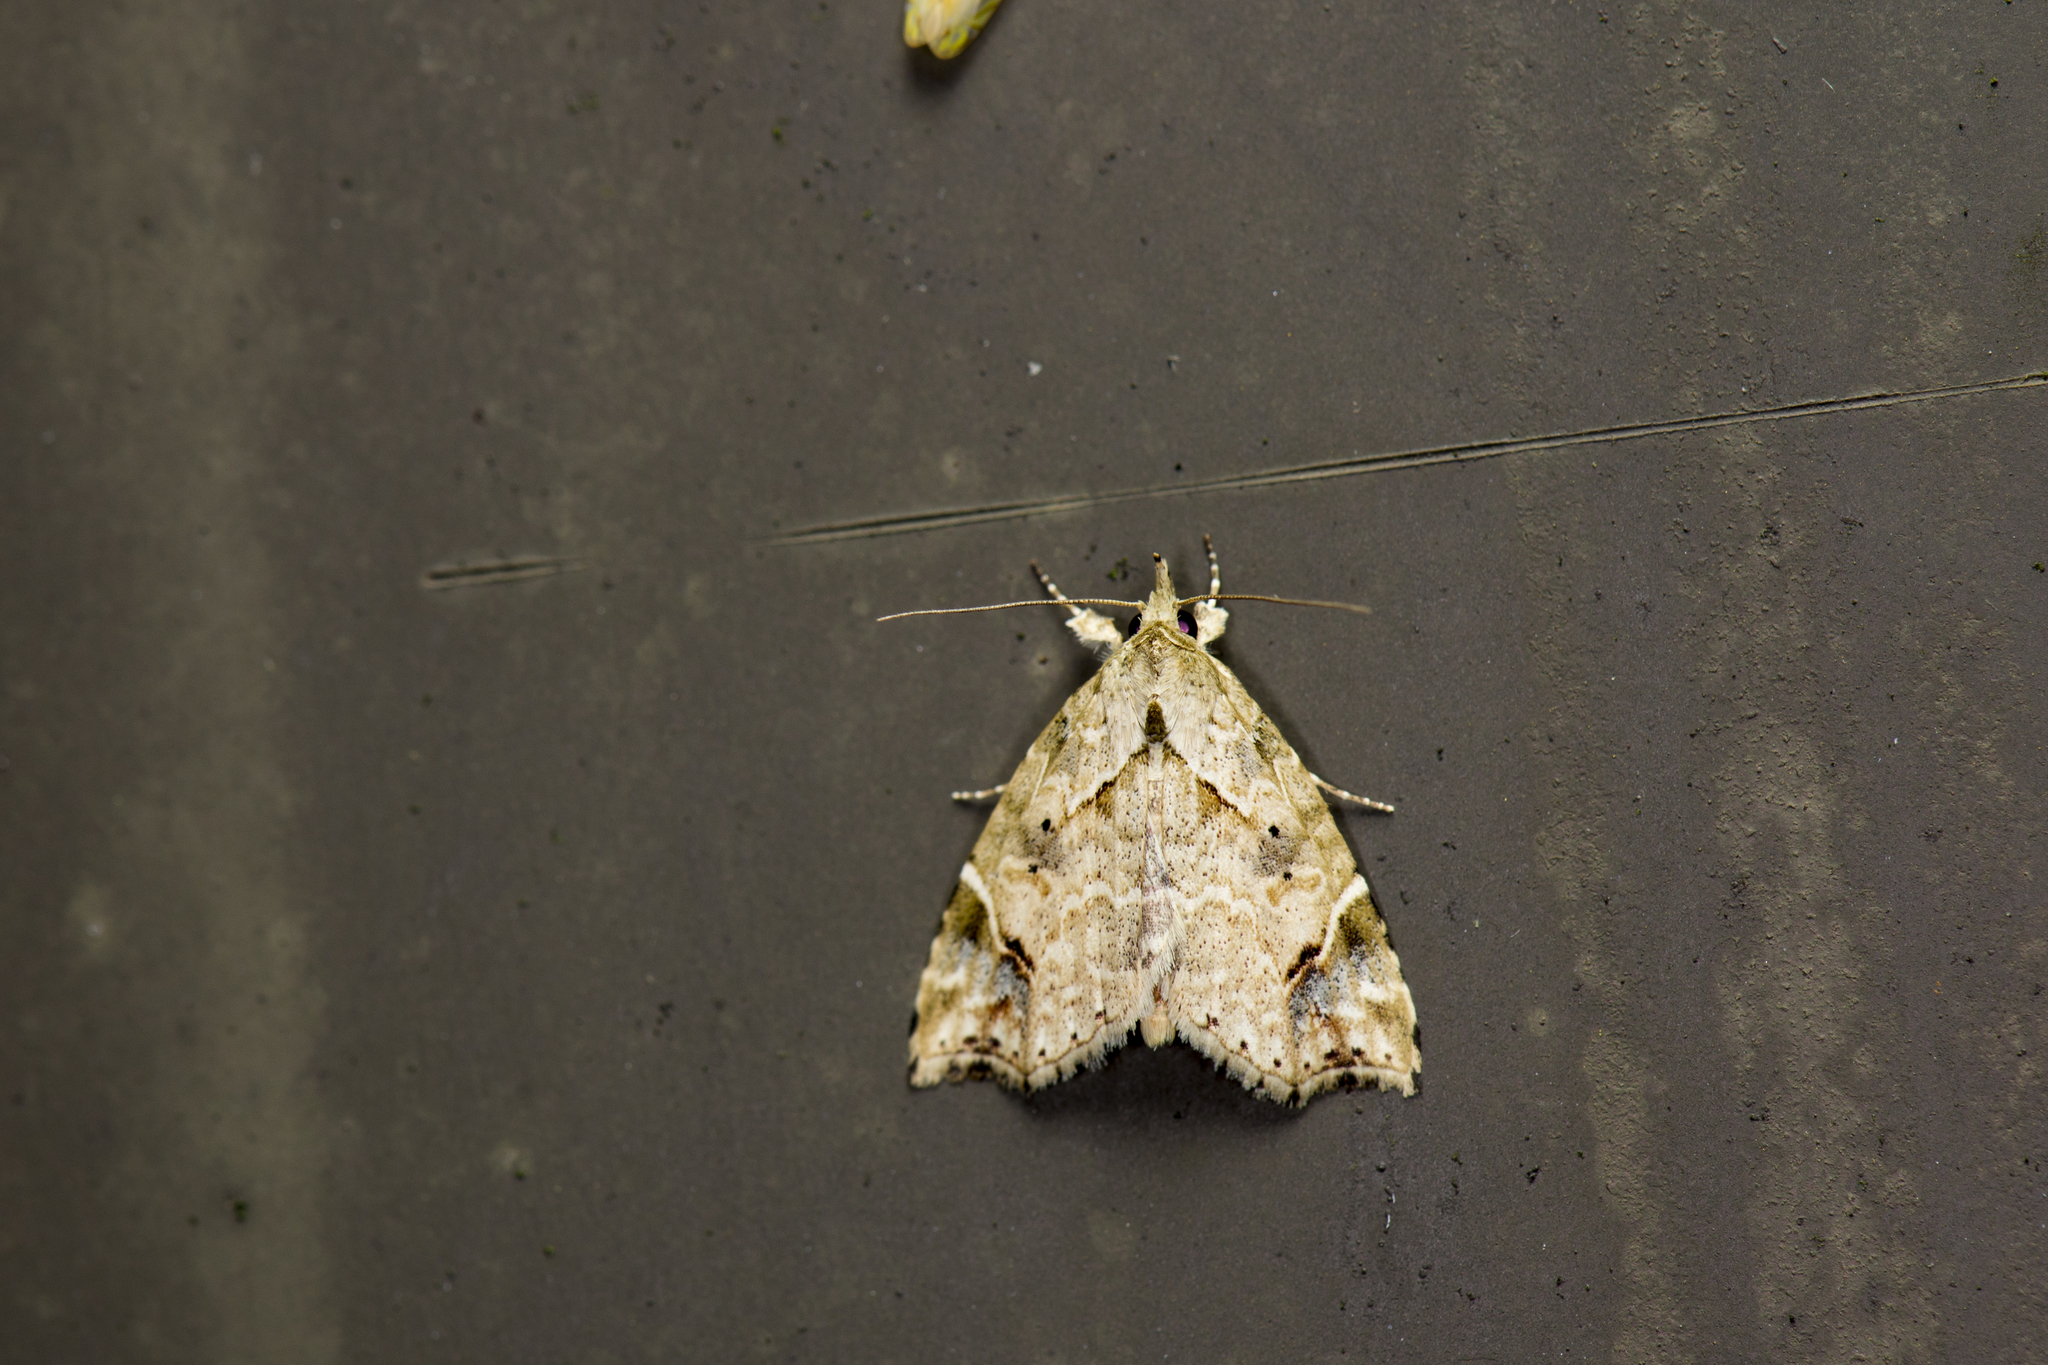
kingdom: Animalia
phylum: Arthropoda
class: Insecta
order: Lepidoptera
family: Erebidae
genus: Olulis
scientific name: Olulis
